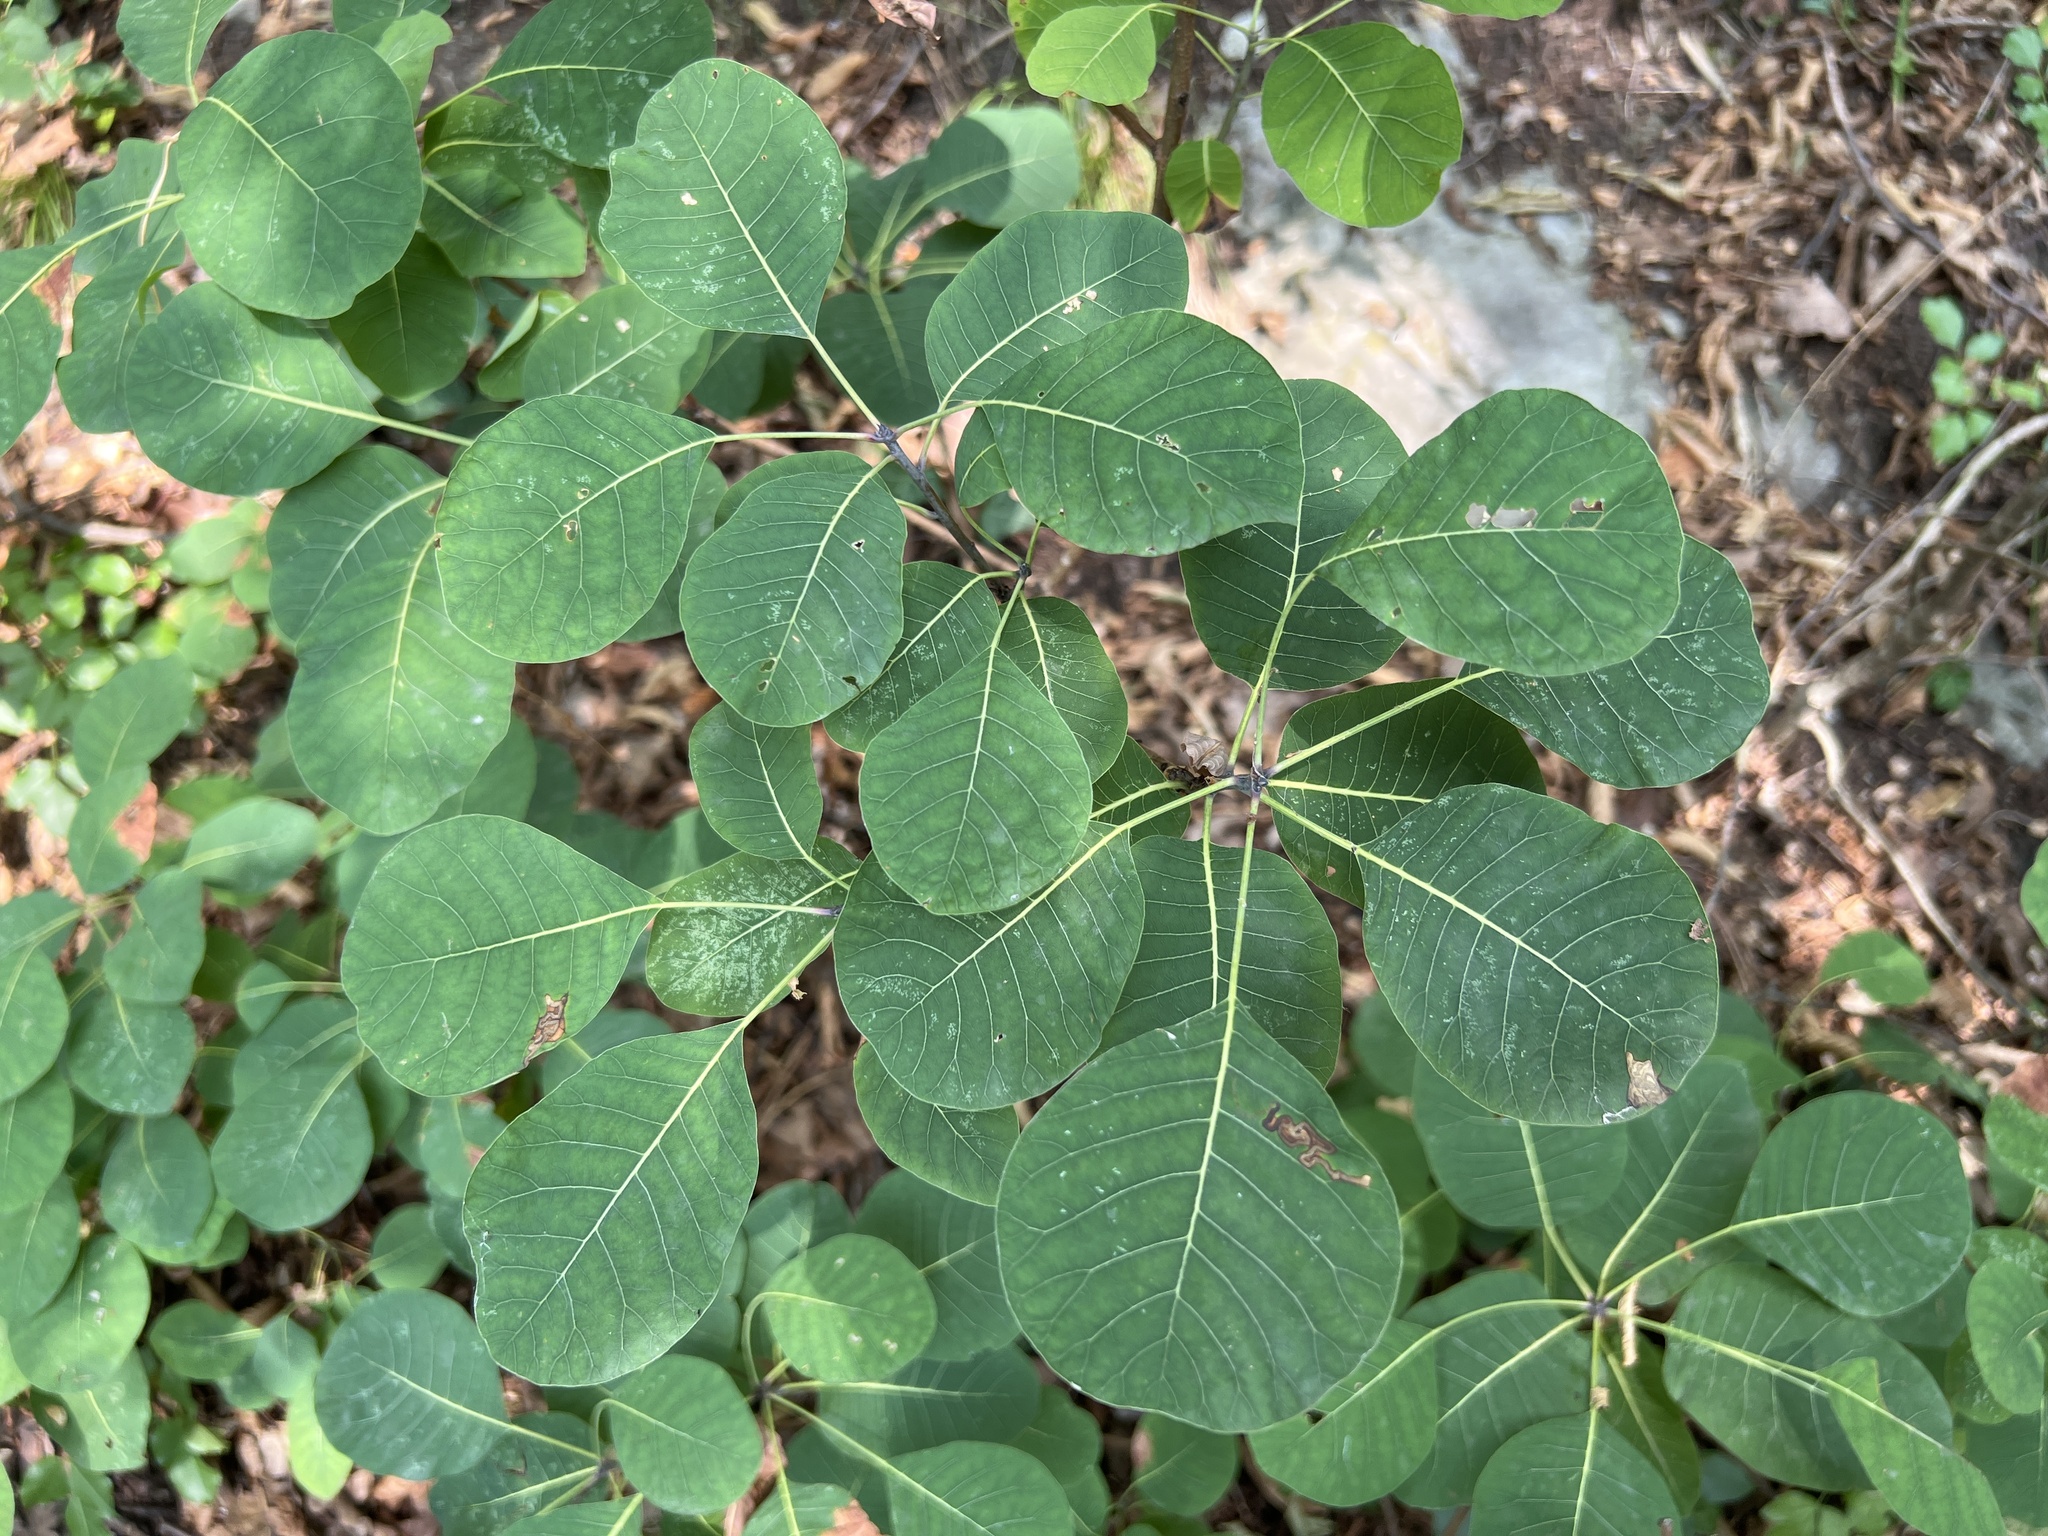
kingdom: Plantae
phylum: Tracheophyta
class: Magnoliopsida
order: Sapindales
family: Anacardiaceae
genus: Cotinus
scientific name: Cotinus coggygria
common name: Smoke-tree
